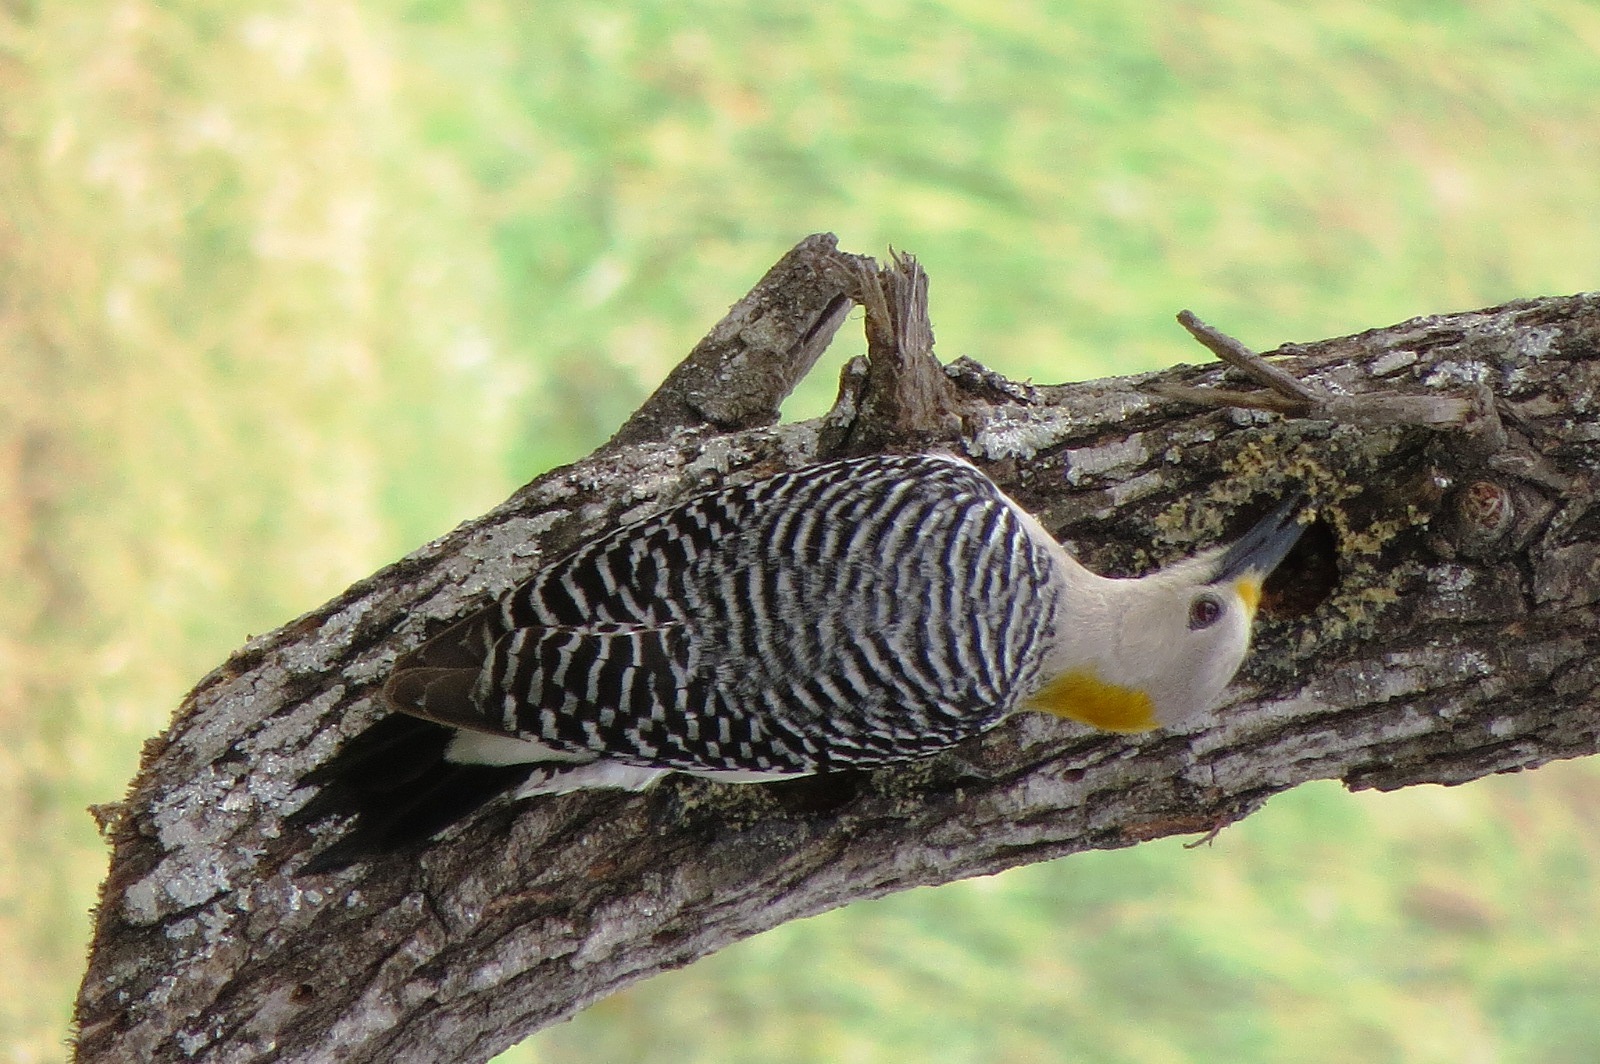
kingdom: Animalia
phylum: Chordata
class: Aves
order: Piciformes
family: Picidae
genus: Melanerpes
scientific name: Melanerpes aurifrons
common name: Golden-fronted woodpecker
